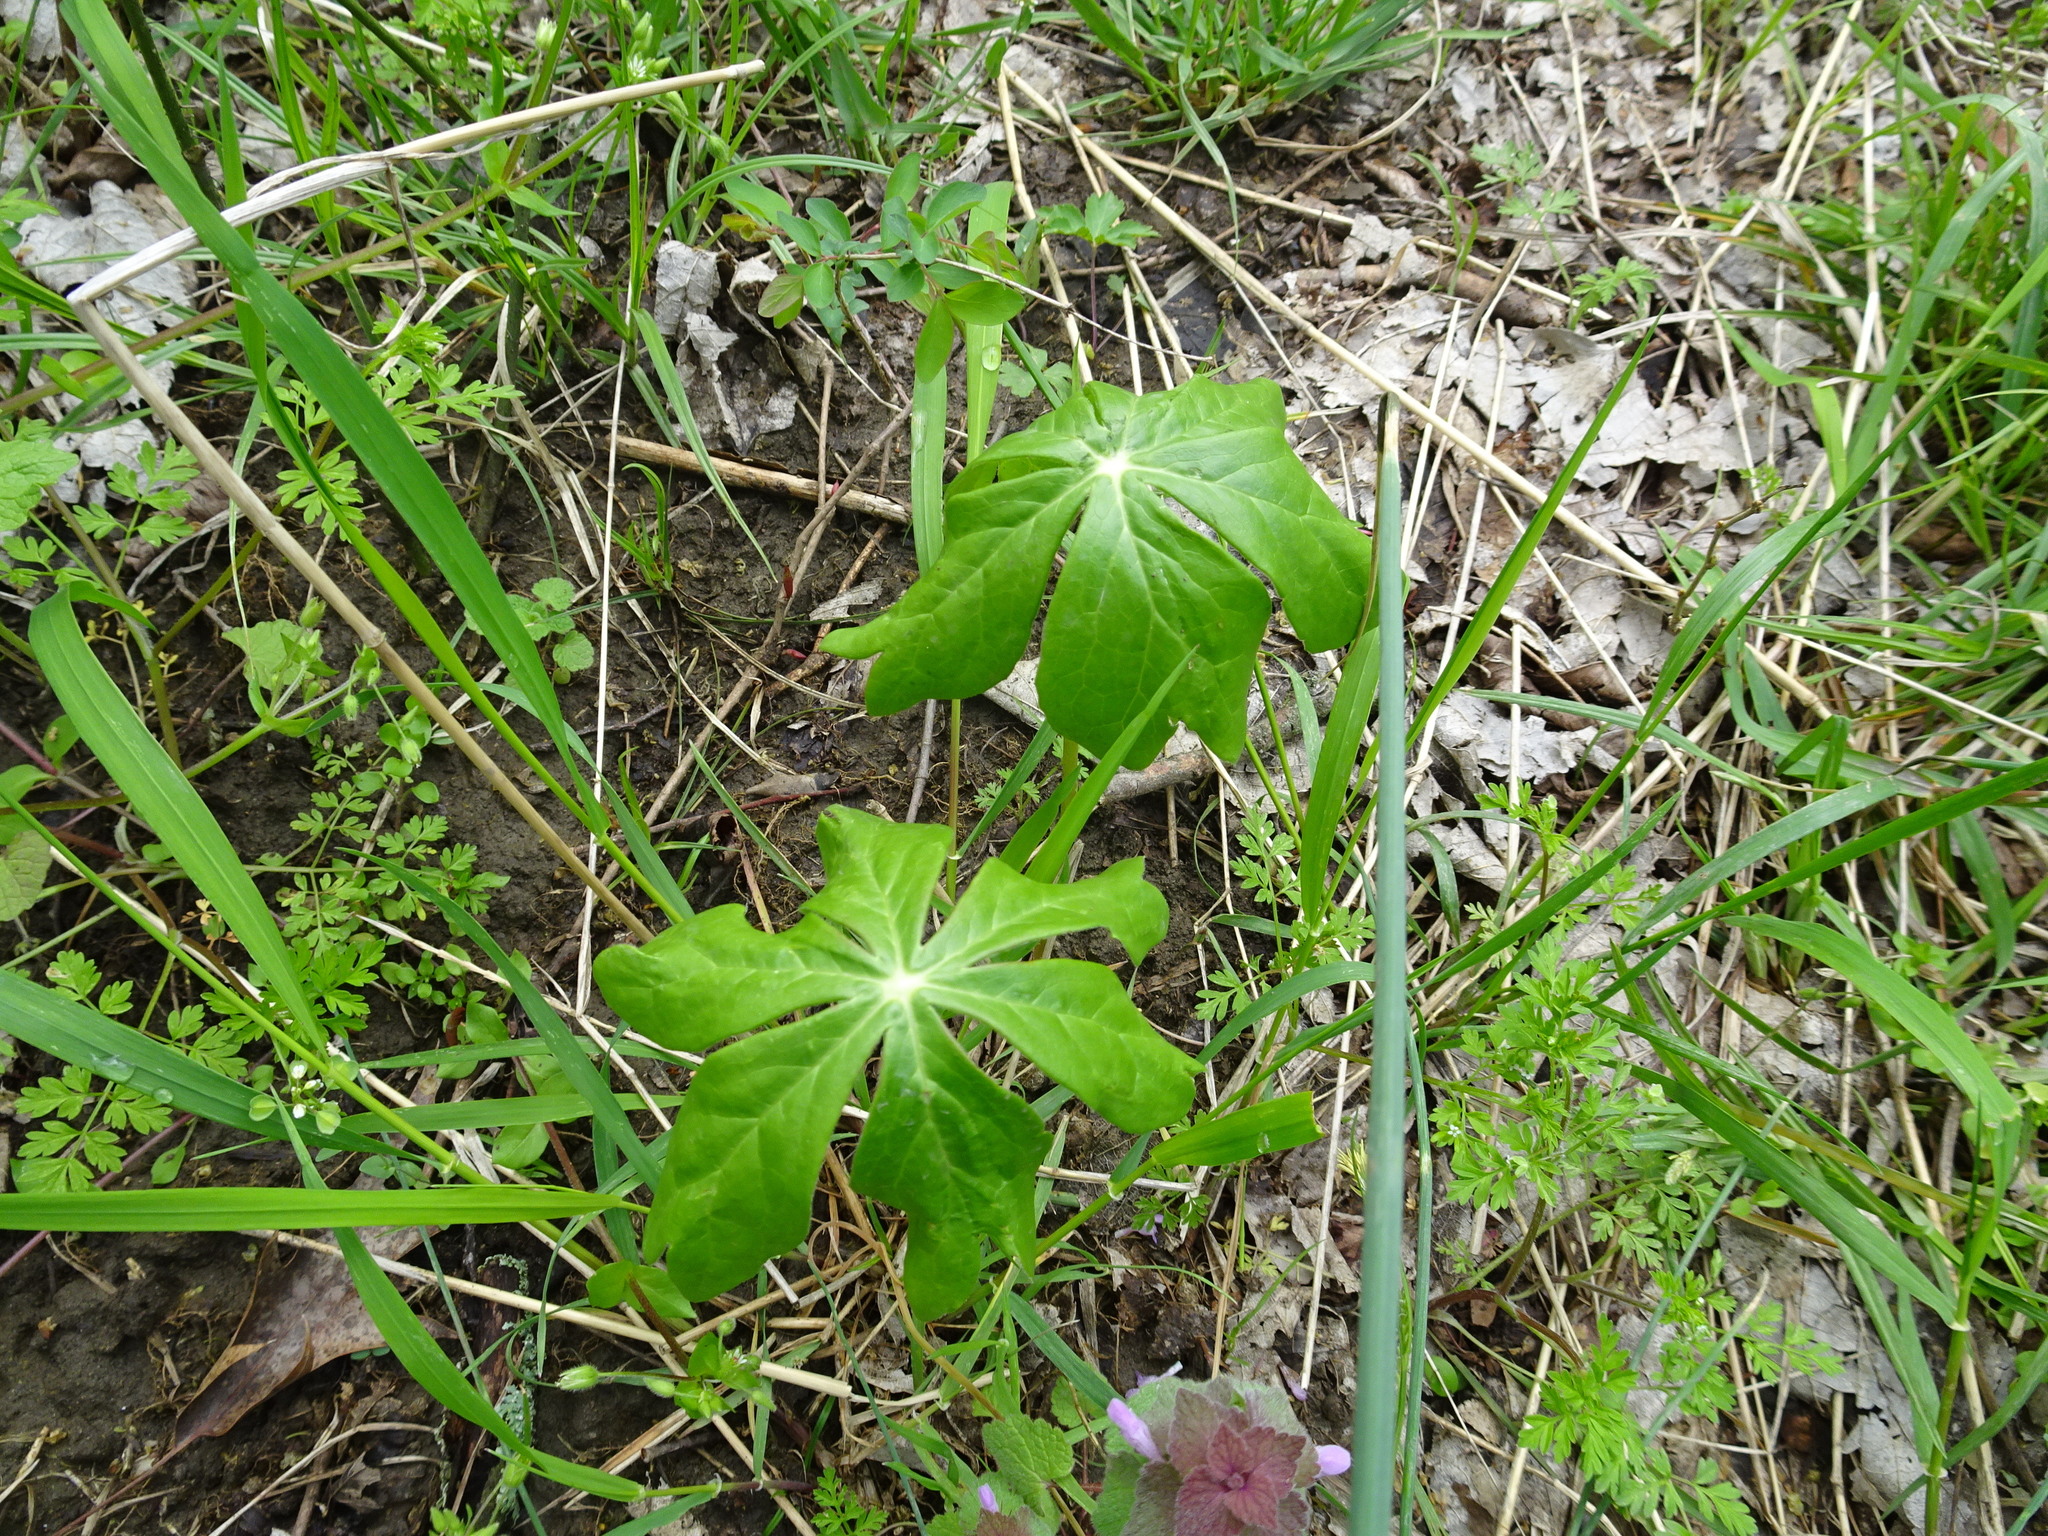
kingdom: Plantae
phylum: Tracheophyta
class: Magnoliopsida
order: Ranunculales
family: Berberidaceae
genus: Podophyllum
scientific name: Podophyllum peltatum
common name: Wild mandrake
